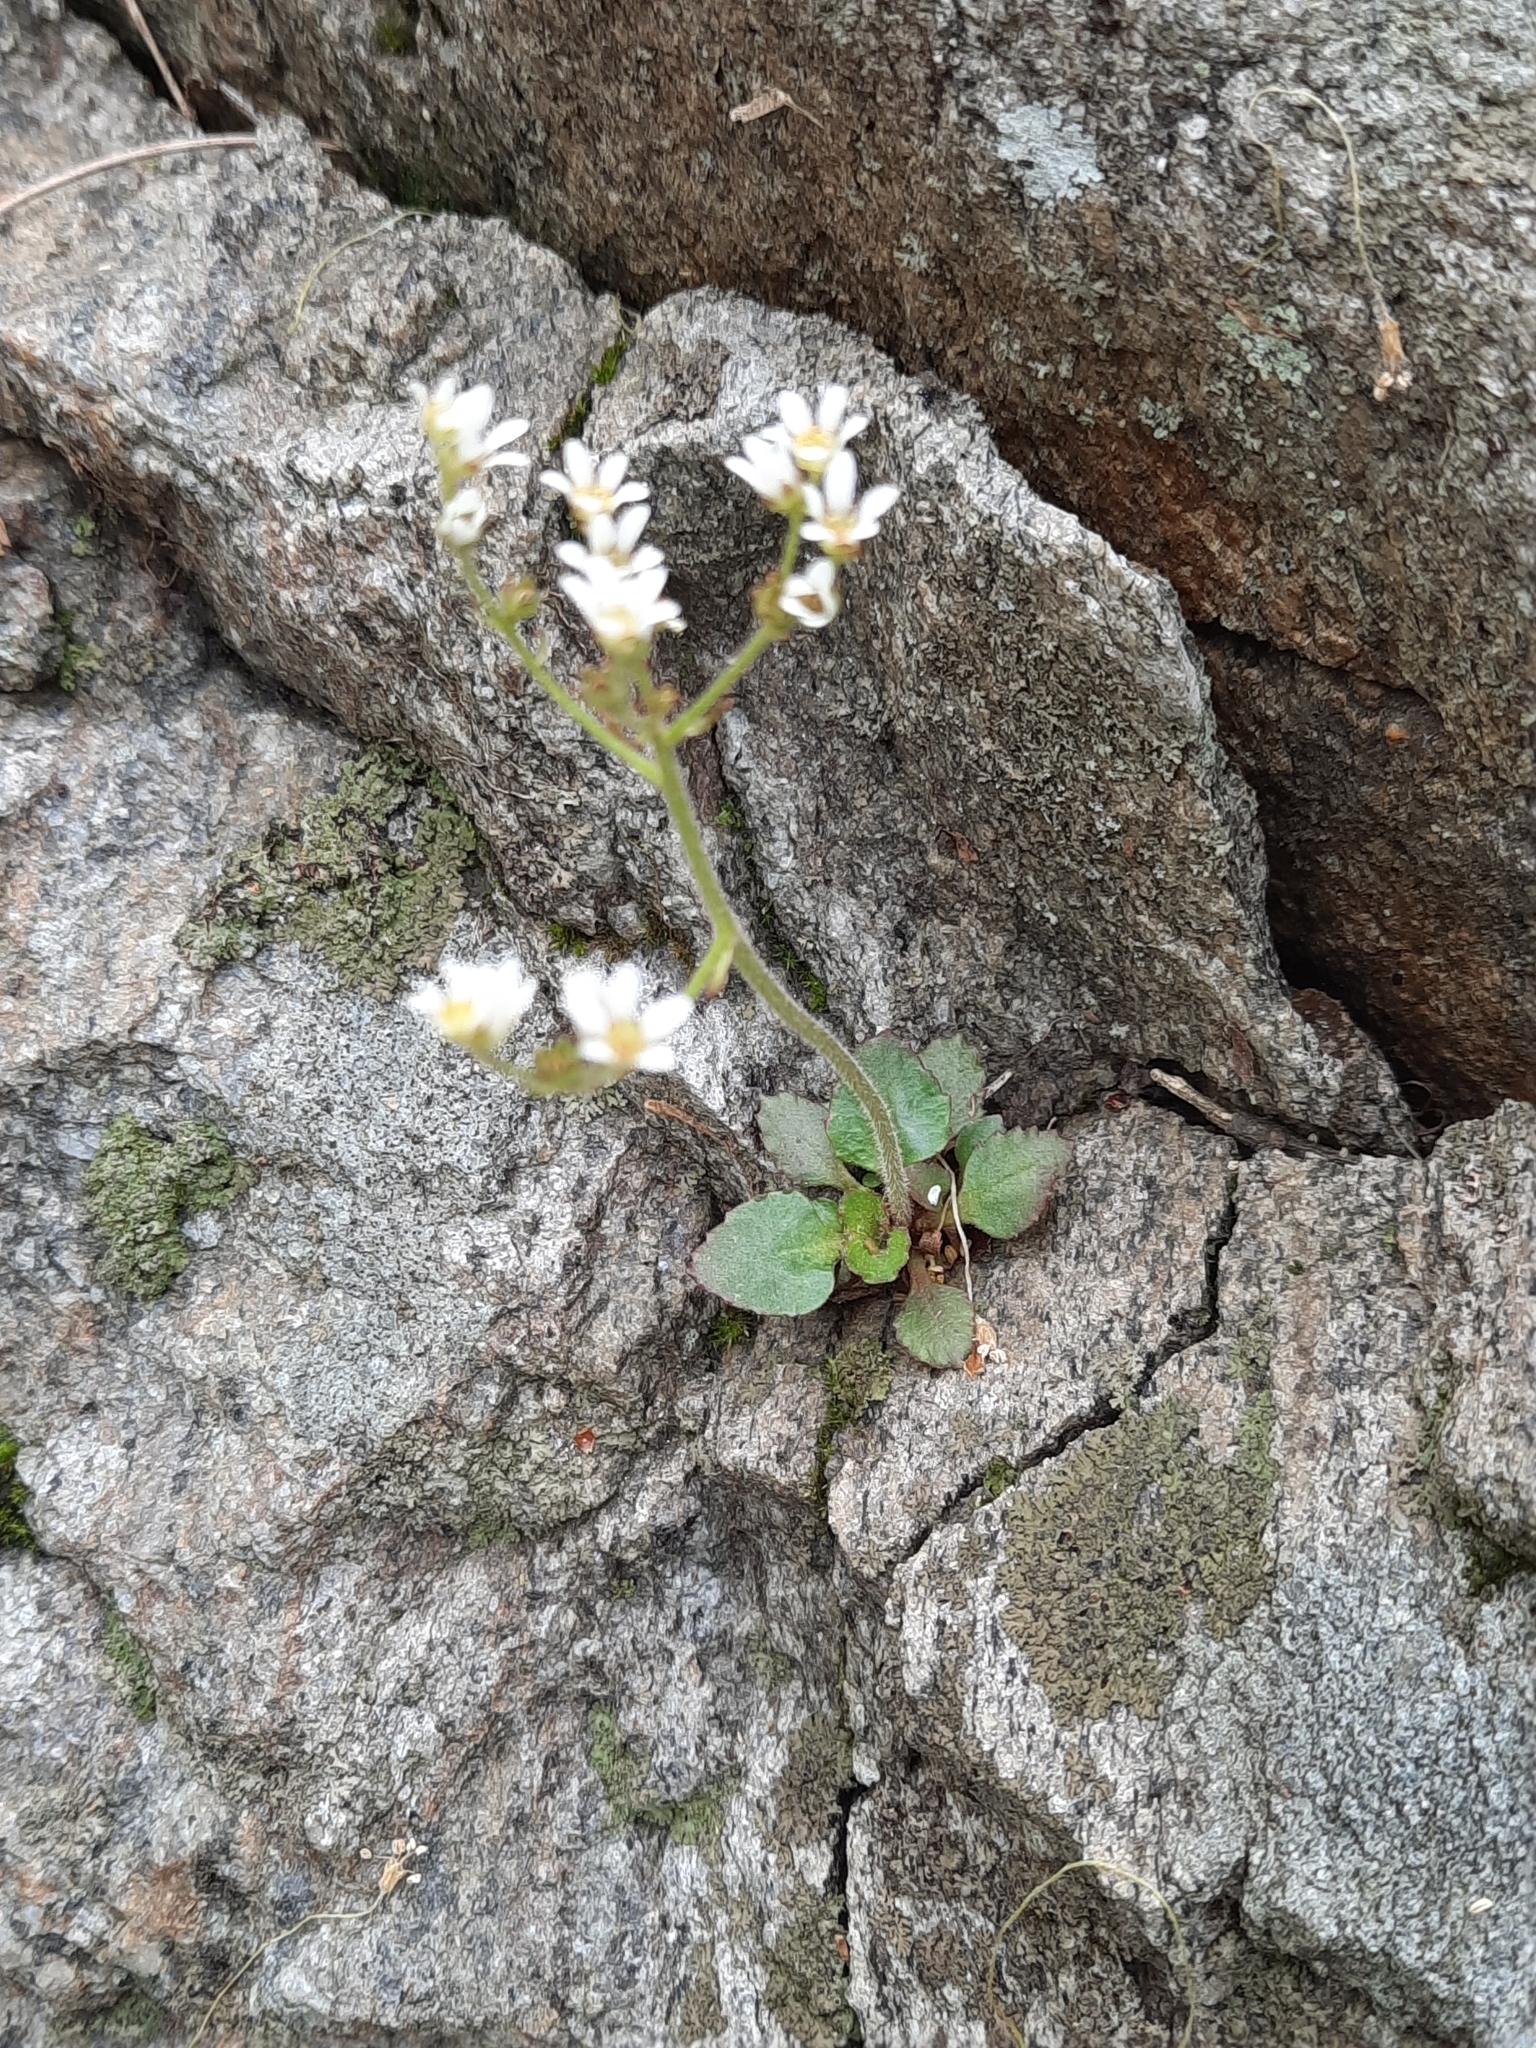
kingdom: Plantae
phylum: Tracheophyta
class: Magnoliopsida
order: Saxifragales
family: Saxifragaceae
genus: Micranthes
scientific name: Micranthes virginiensis
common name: Early saxifrage
